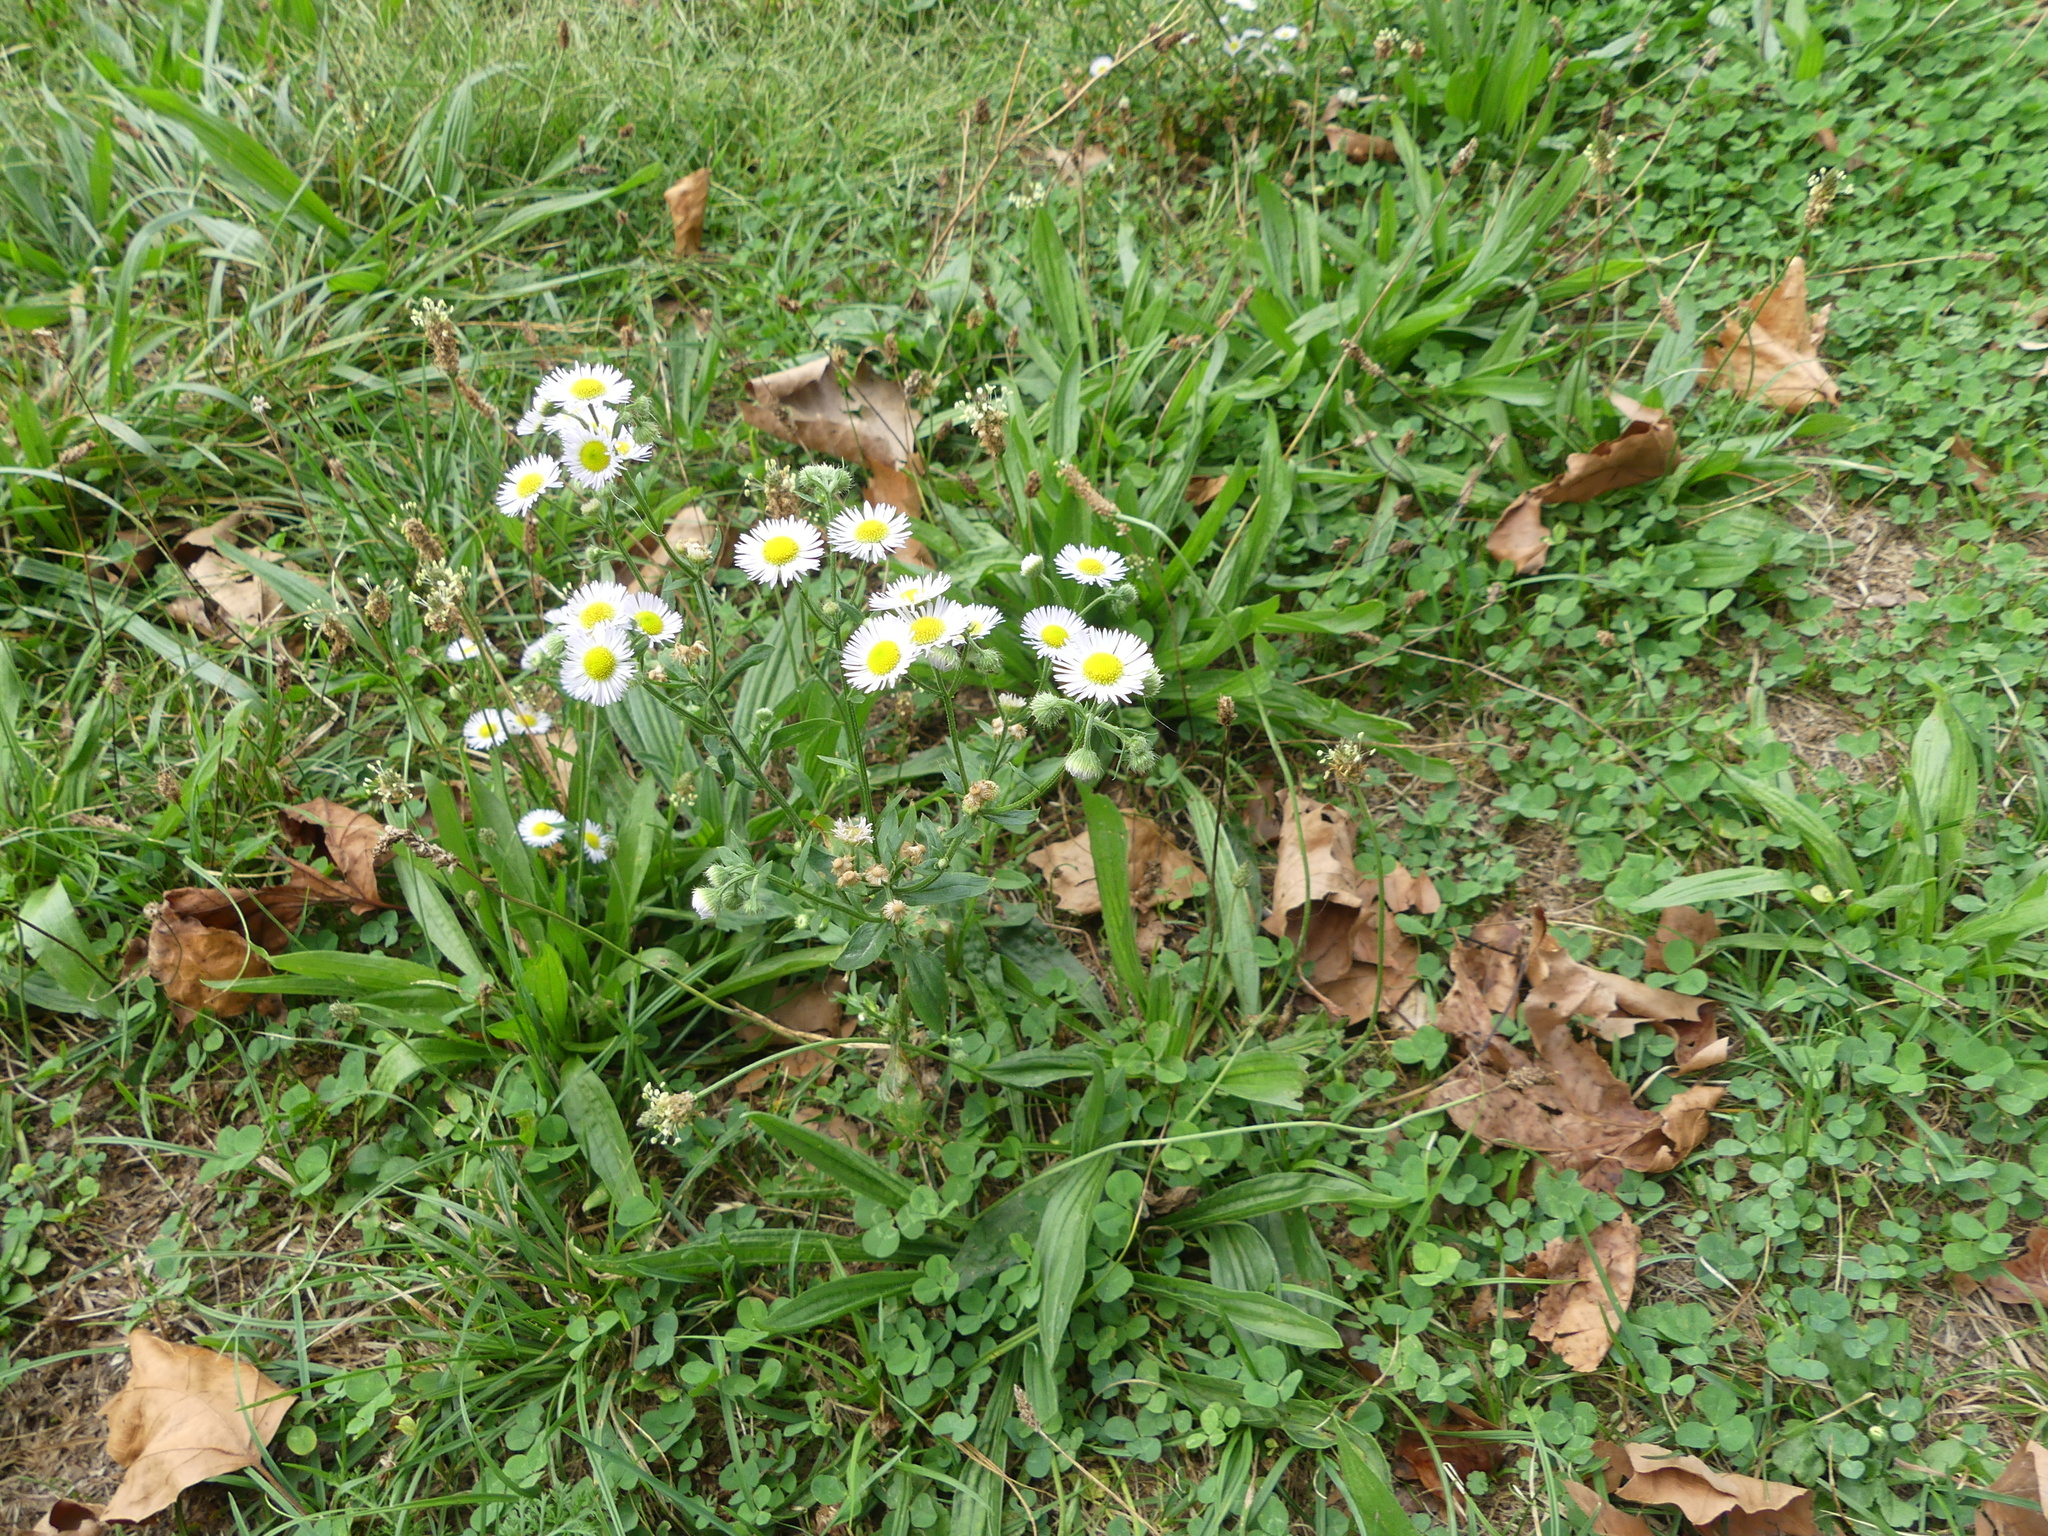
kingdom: Plantae
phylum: Tracheophyta
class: Magnoliopsida
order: Asterales
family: Asteraceae
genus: Erigeron
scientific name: Erigeron annuus
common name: Tall fleabane
